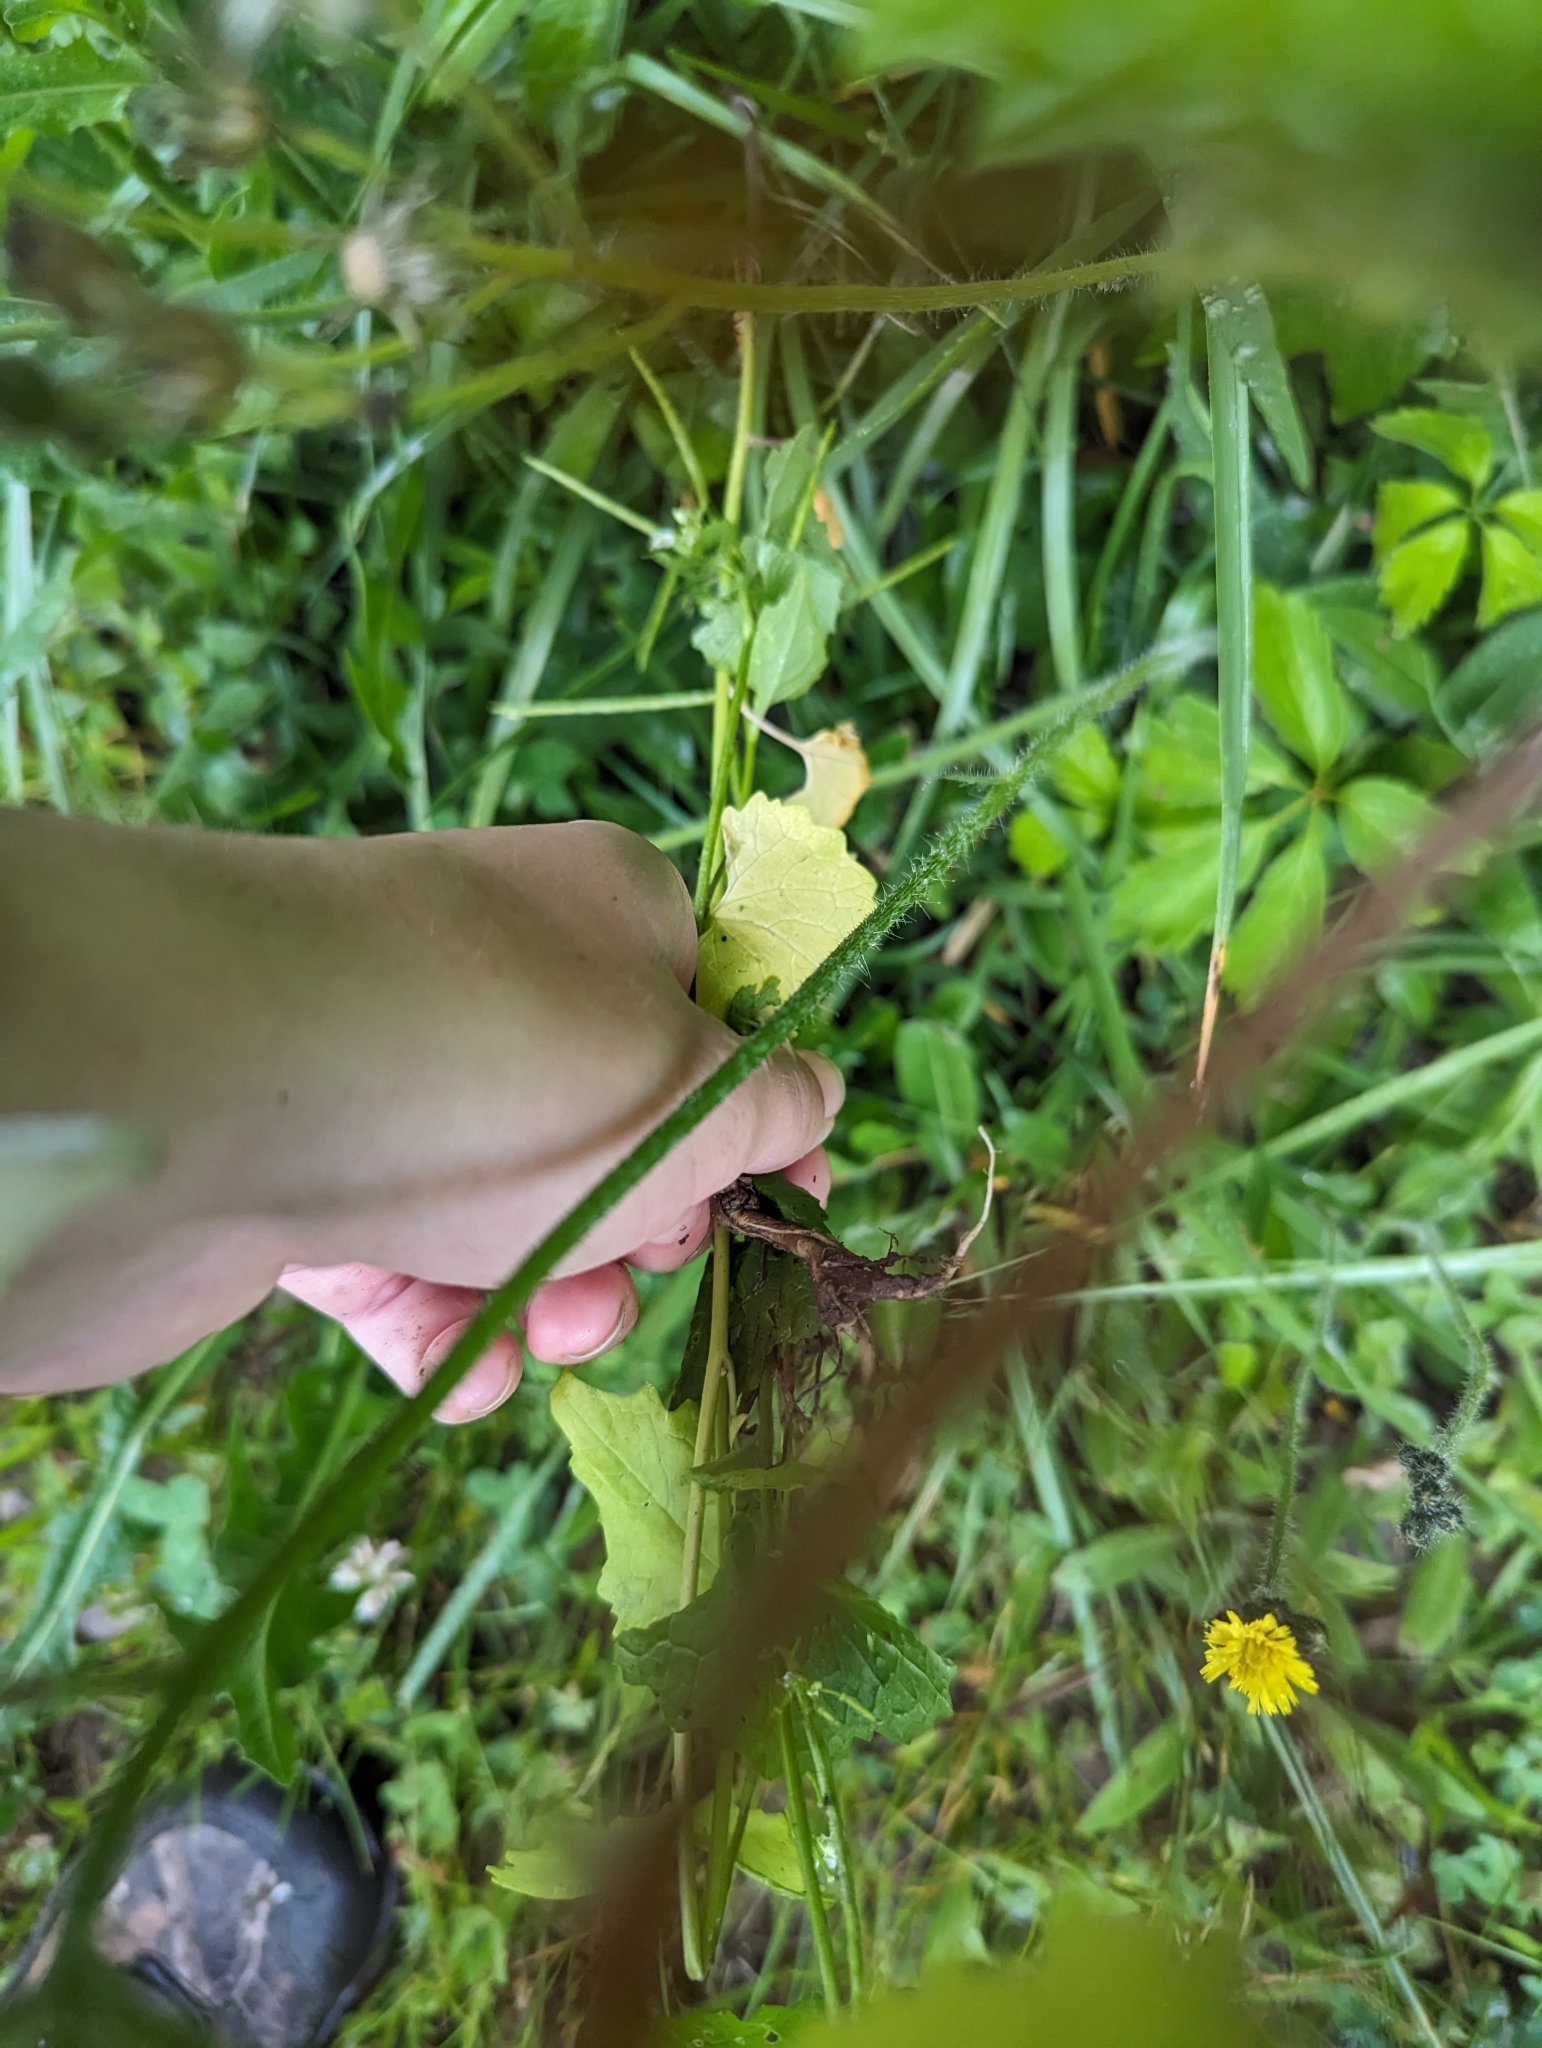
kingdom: Plantae
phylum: Tracheophyta
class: Magnoliopsida
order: Asterales
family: Asteraceae
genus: Pilosella
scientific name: Pilosella caespitosa
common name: Yellow fox-and-cubs
